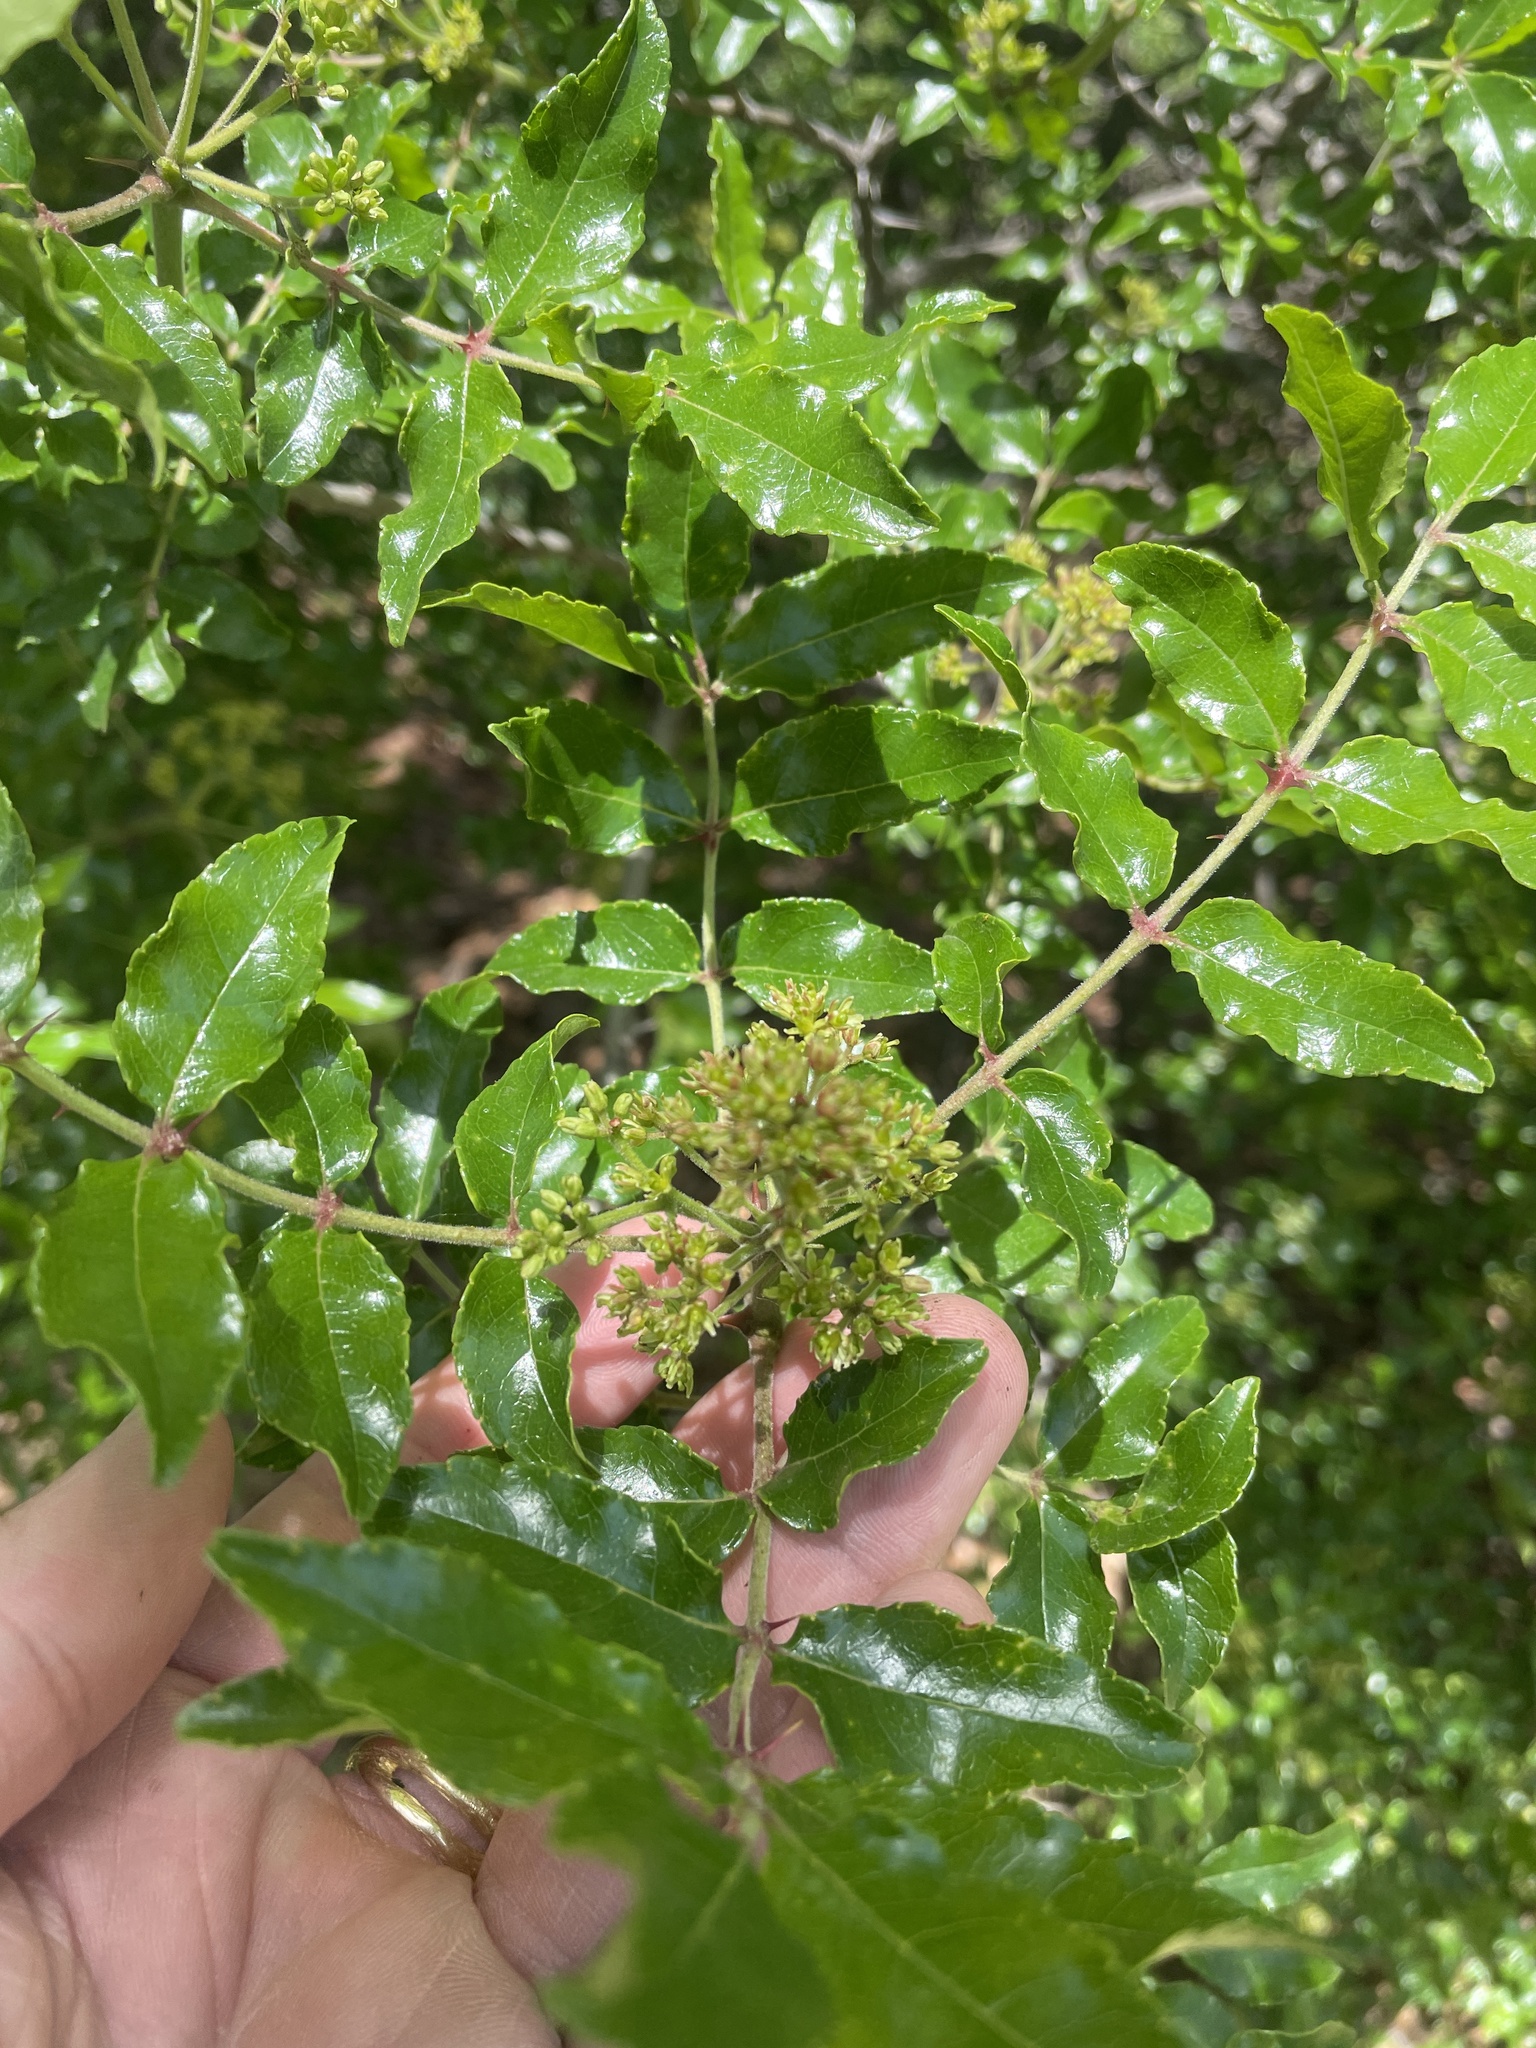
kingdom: Plantae
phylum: Tracheophyta
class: Magnoliopsida
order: Sapindales
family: Rutaceae
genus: Zanthoxylum
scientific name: Zanthoxylum clava-herculis
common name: Hercules'-club
